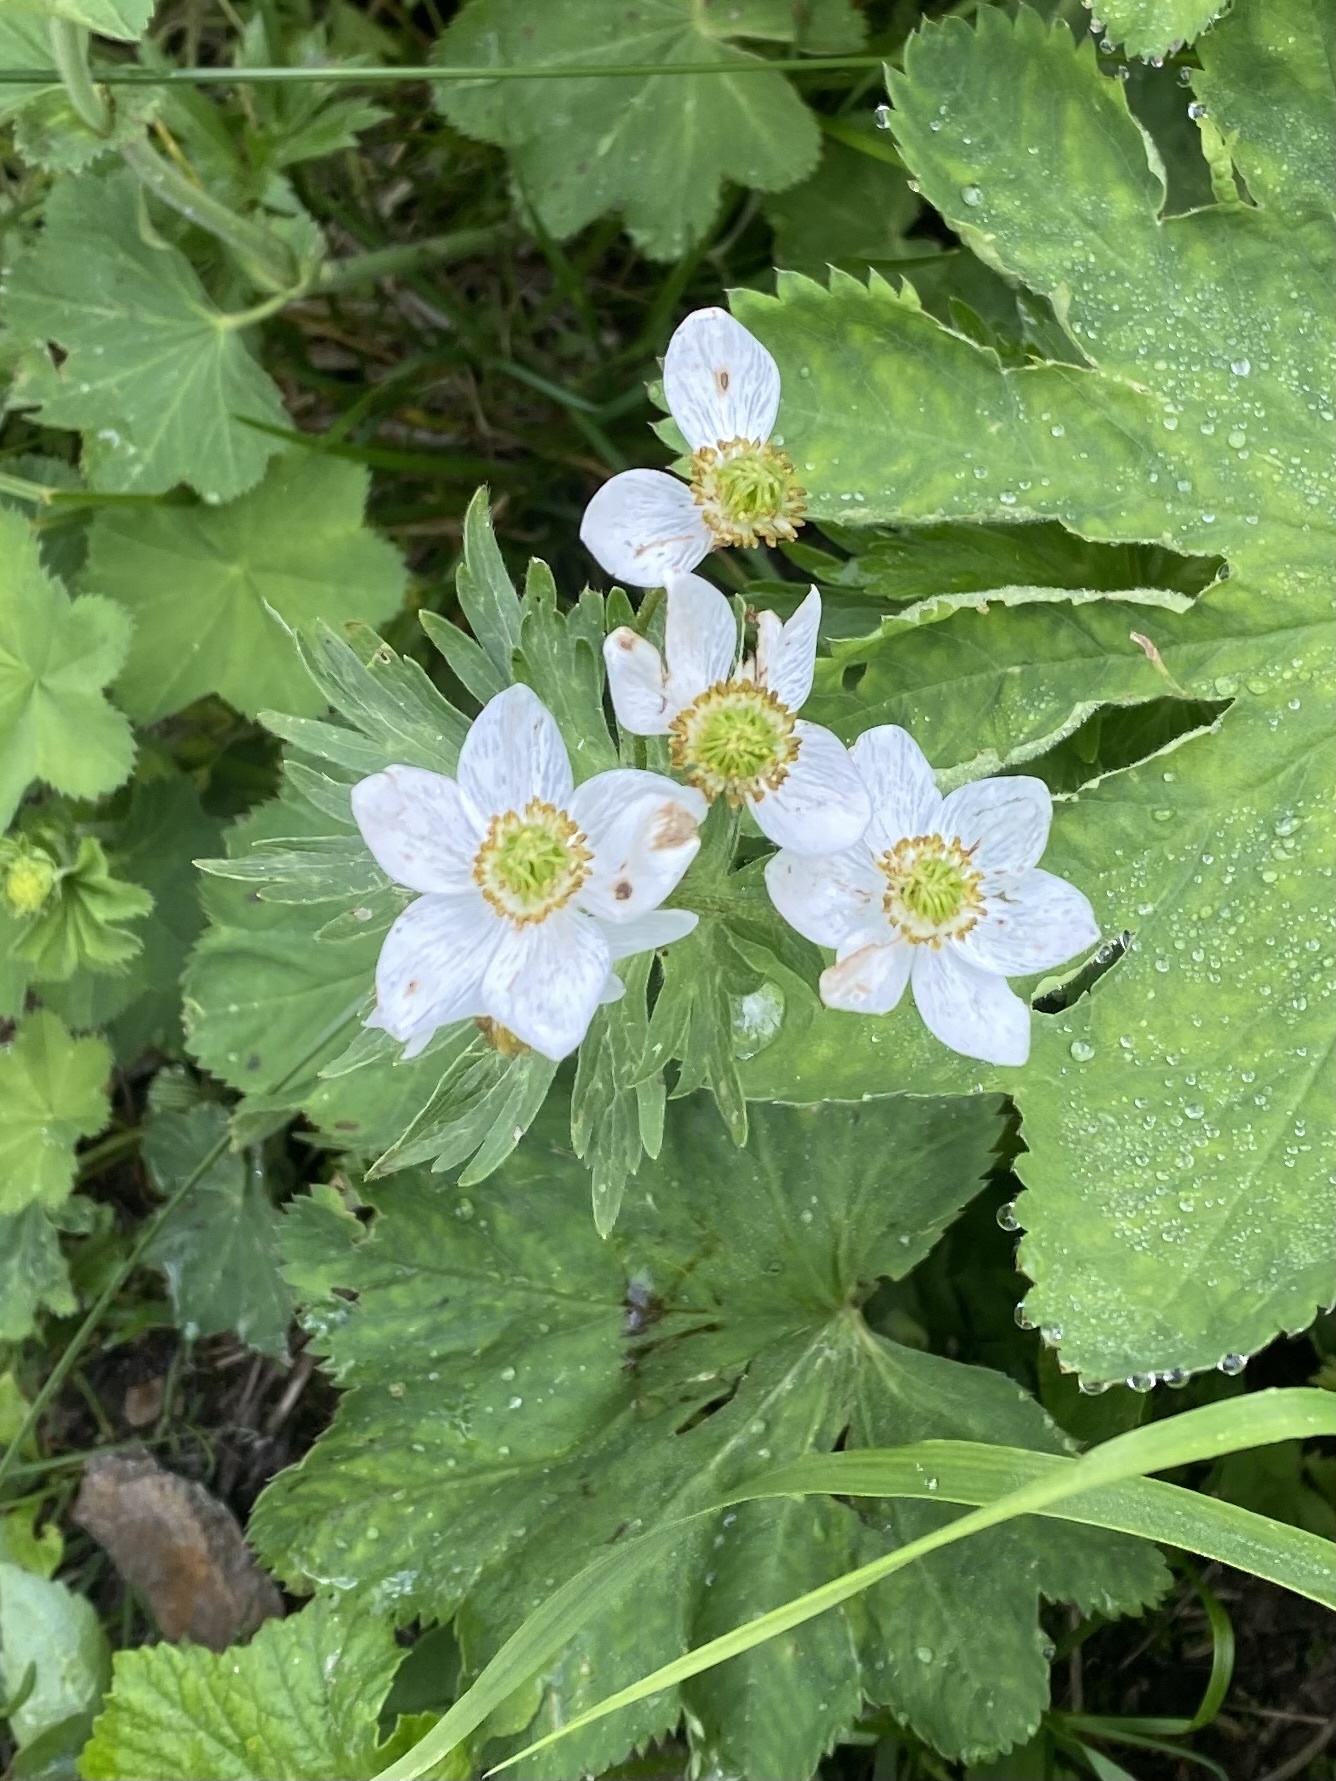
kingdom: Plantae
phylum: Tracheophyta
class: Magnoliopsida
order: Ranunculales
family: Ranunculaceae
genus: Anemonastrum
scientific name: Anemonastrum narcissiflorum
